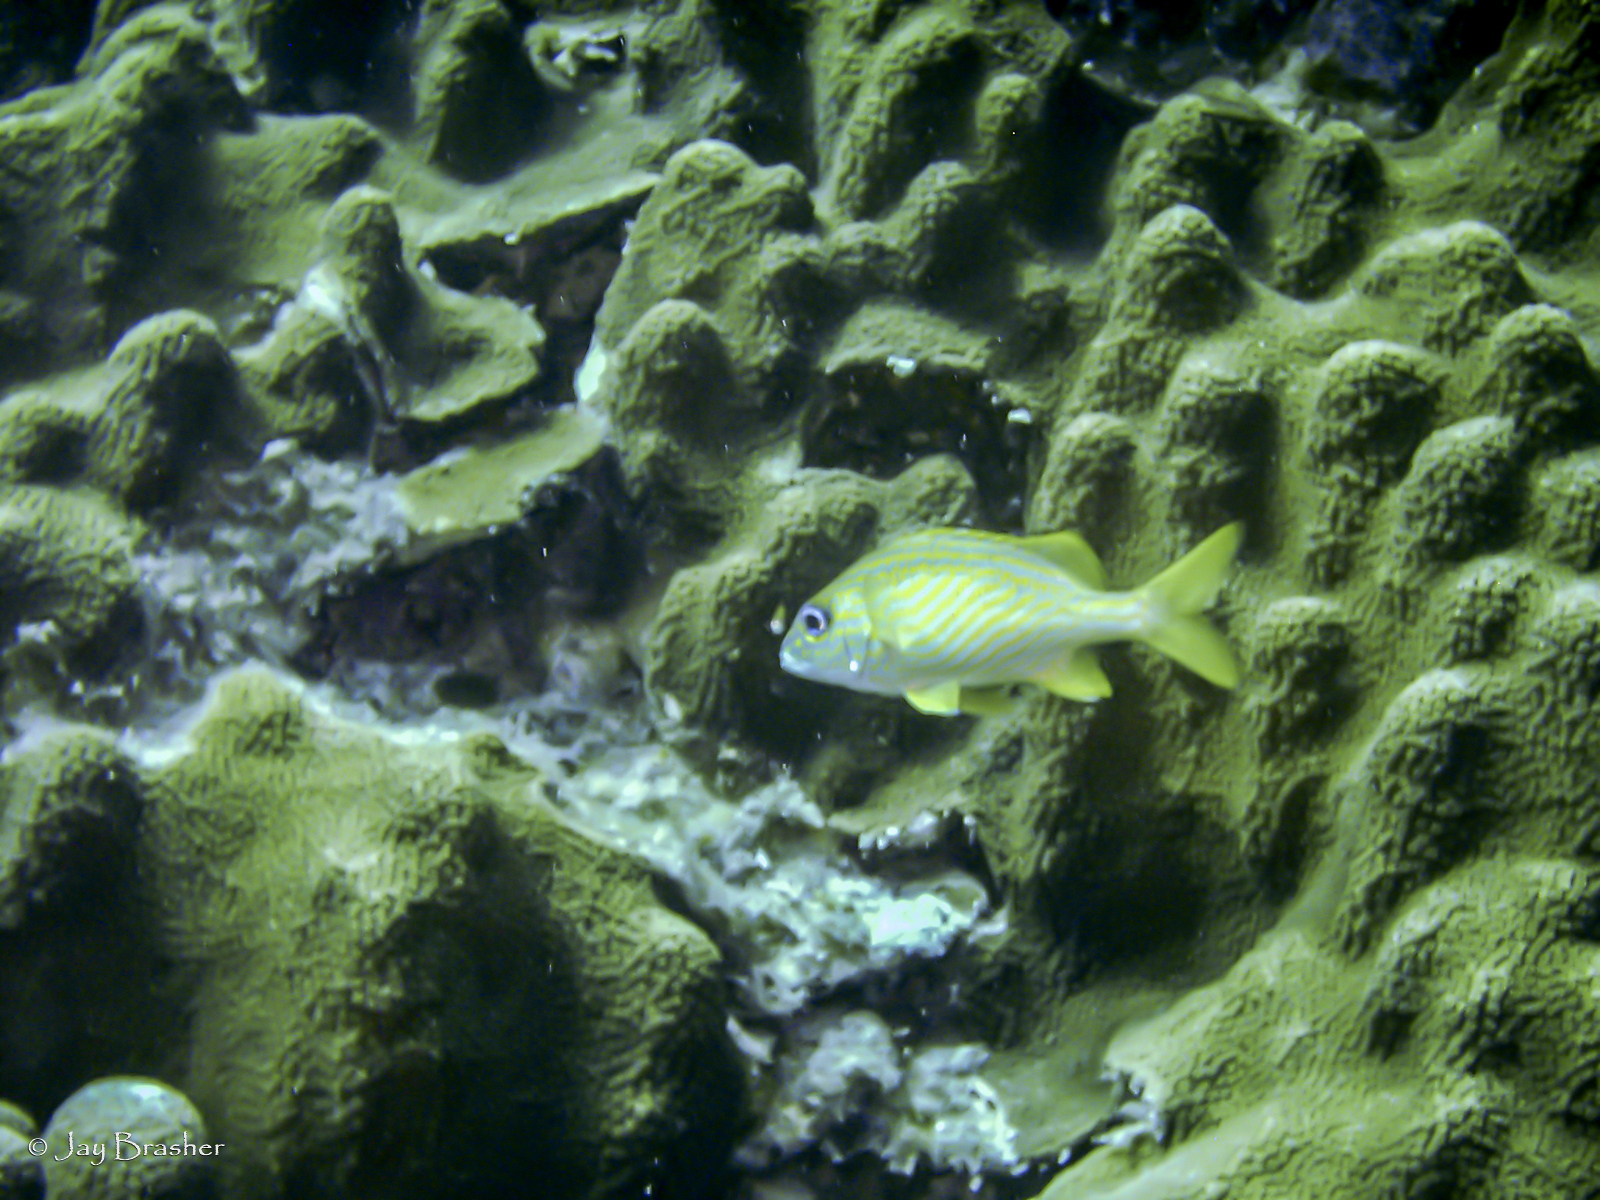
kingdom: Animalia
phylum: Cnidaria
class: Anthozoa
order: Scleractinia
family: Merulinidae
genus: Orbicella
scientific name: Orbicella faveolata
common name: Mountainous star coral
